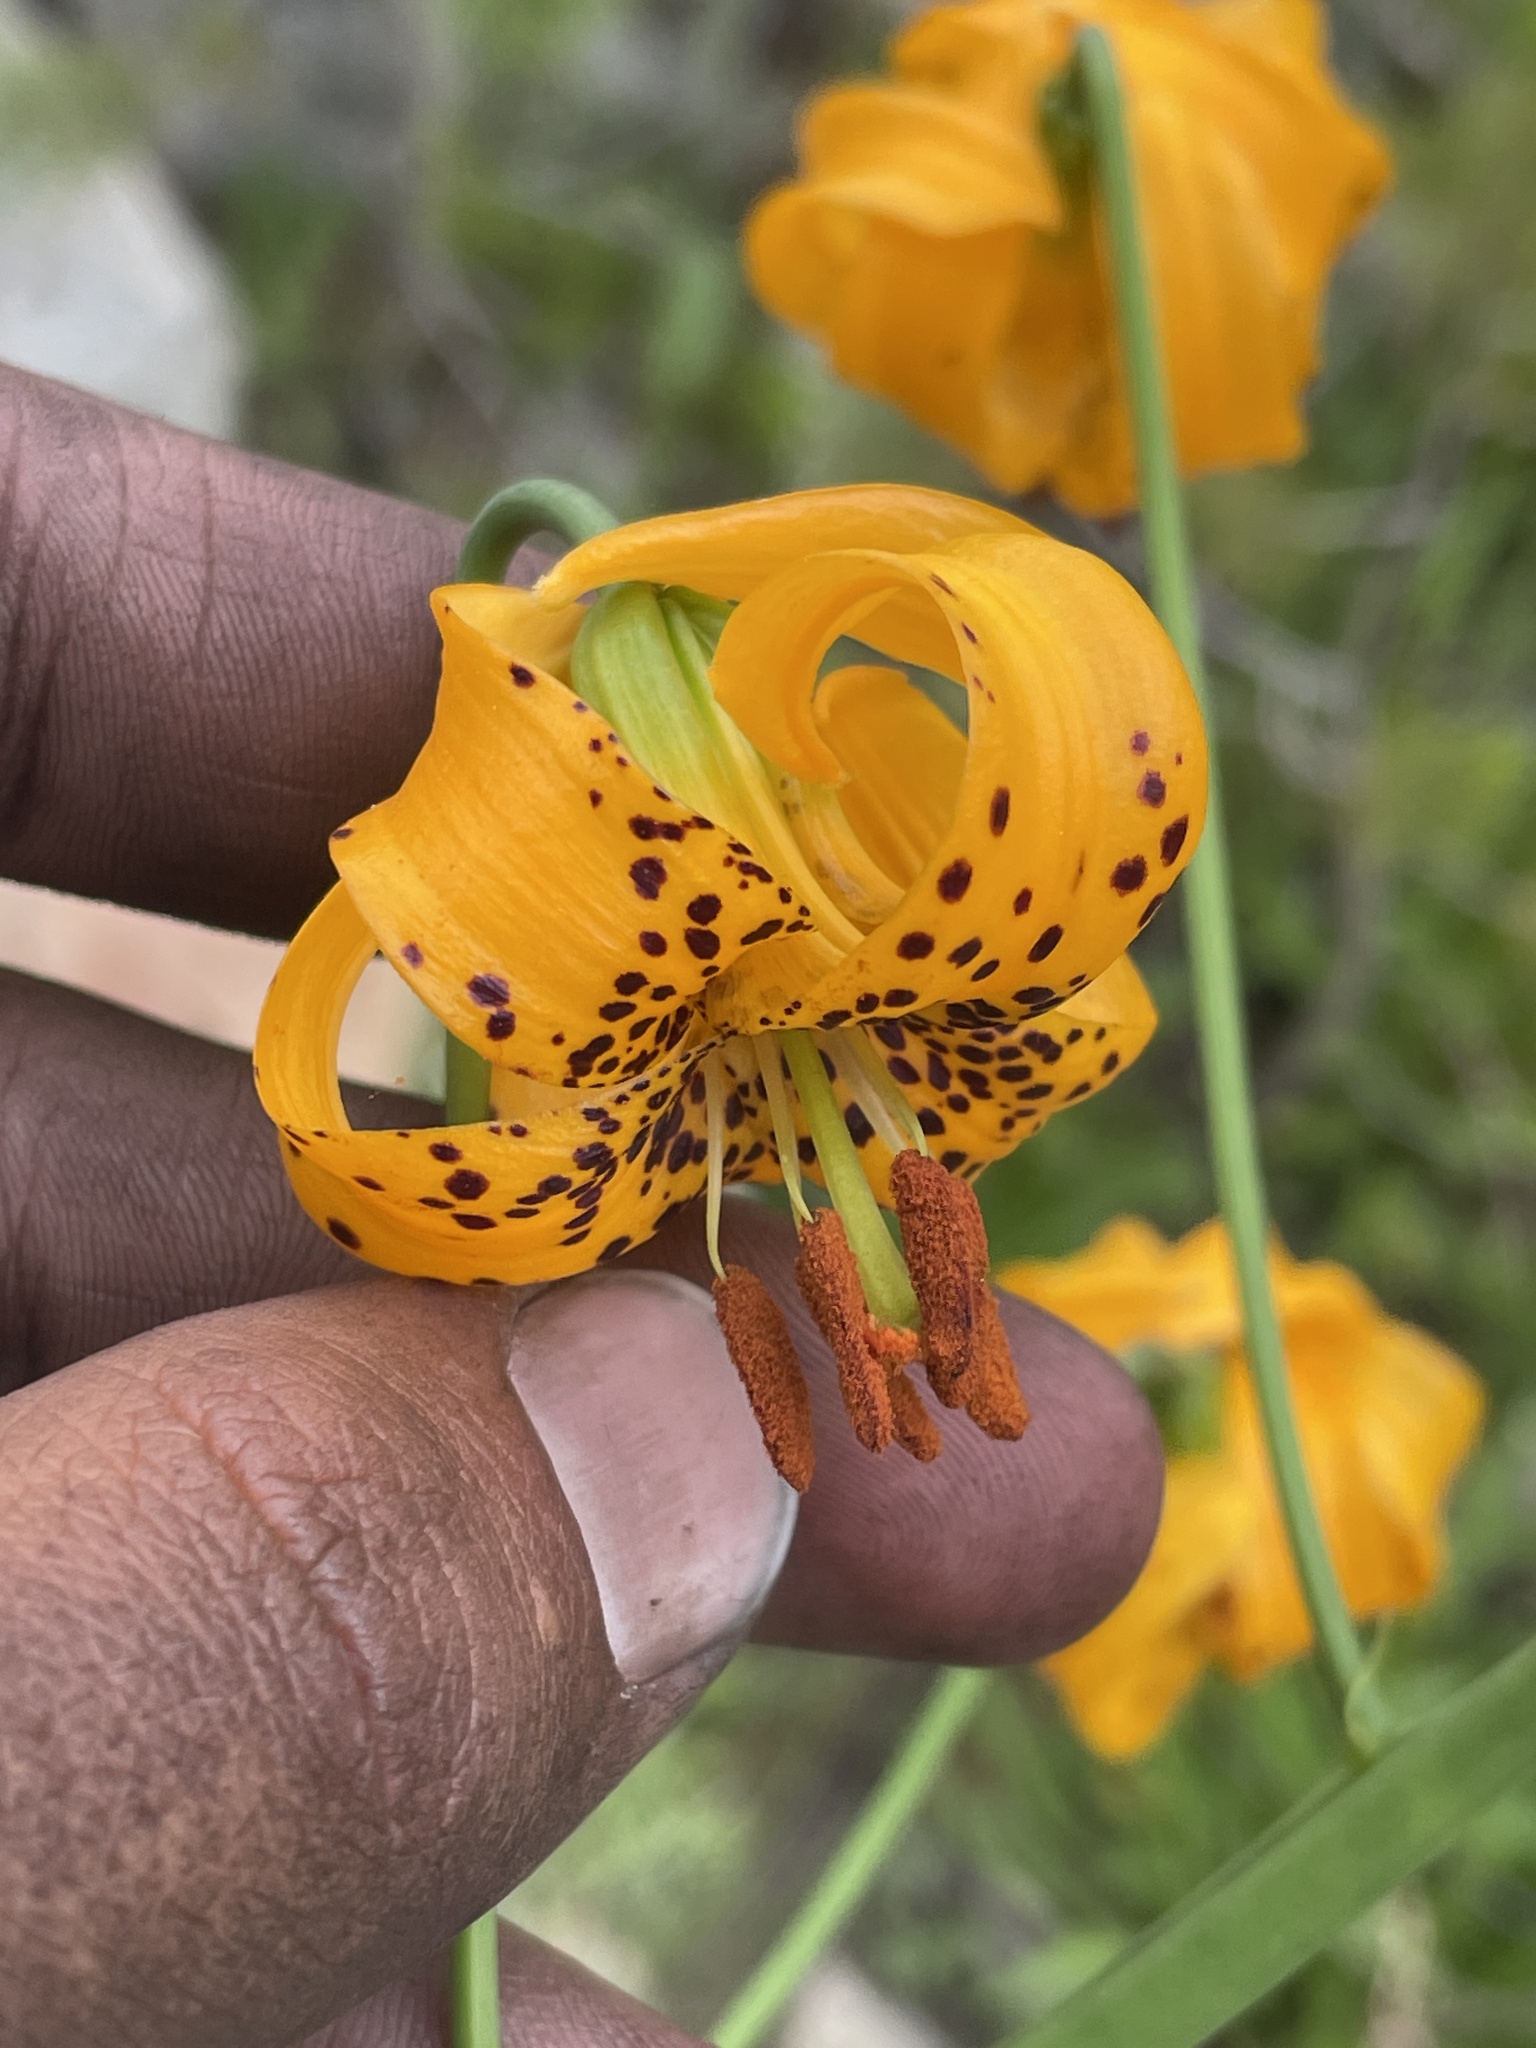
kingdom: Plantae
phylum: Tracheophyta
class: Liliopsida
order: Liliales
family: Liliaceae
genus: Lilium
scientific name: Lilium kelleyanum
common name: Kelley's lily
